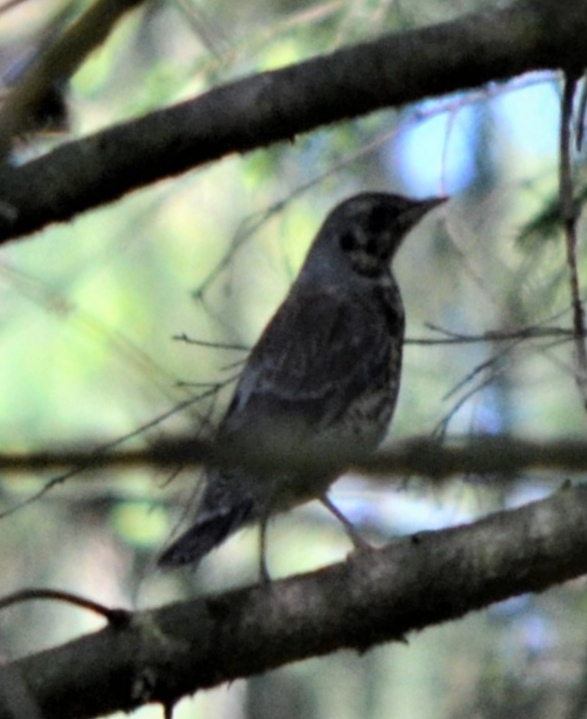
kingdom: Animalia
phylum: Chordata
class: Aves
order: Passeriformes
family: Turdidae
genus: Turdus
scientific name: Turdus pilaris
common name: Fieldfare
